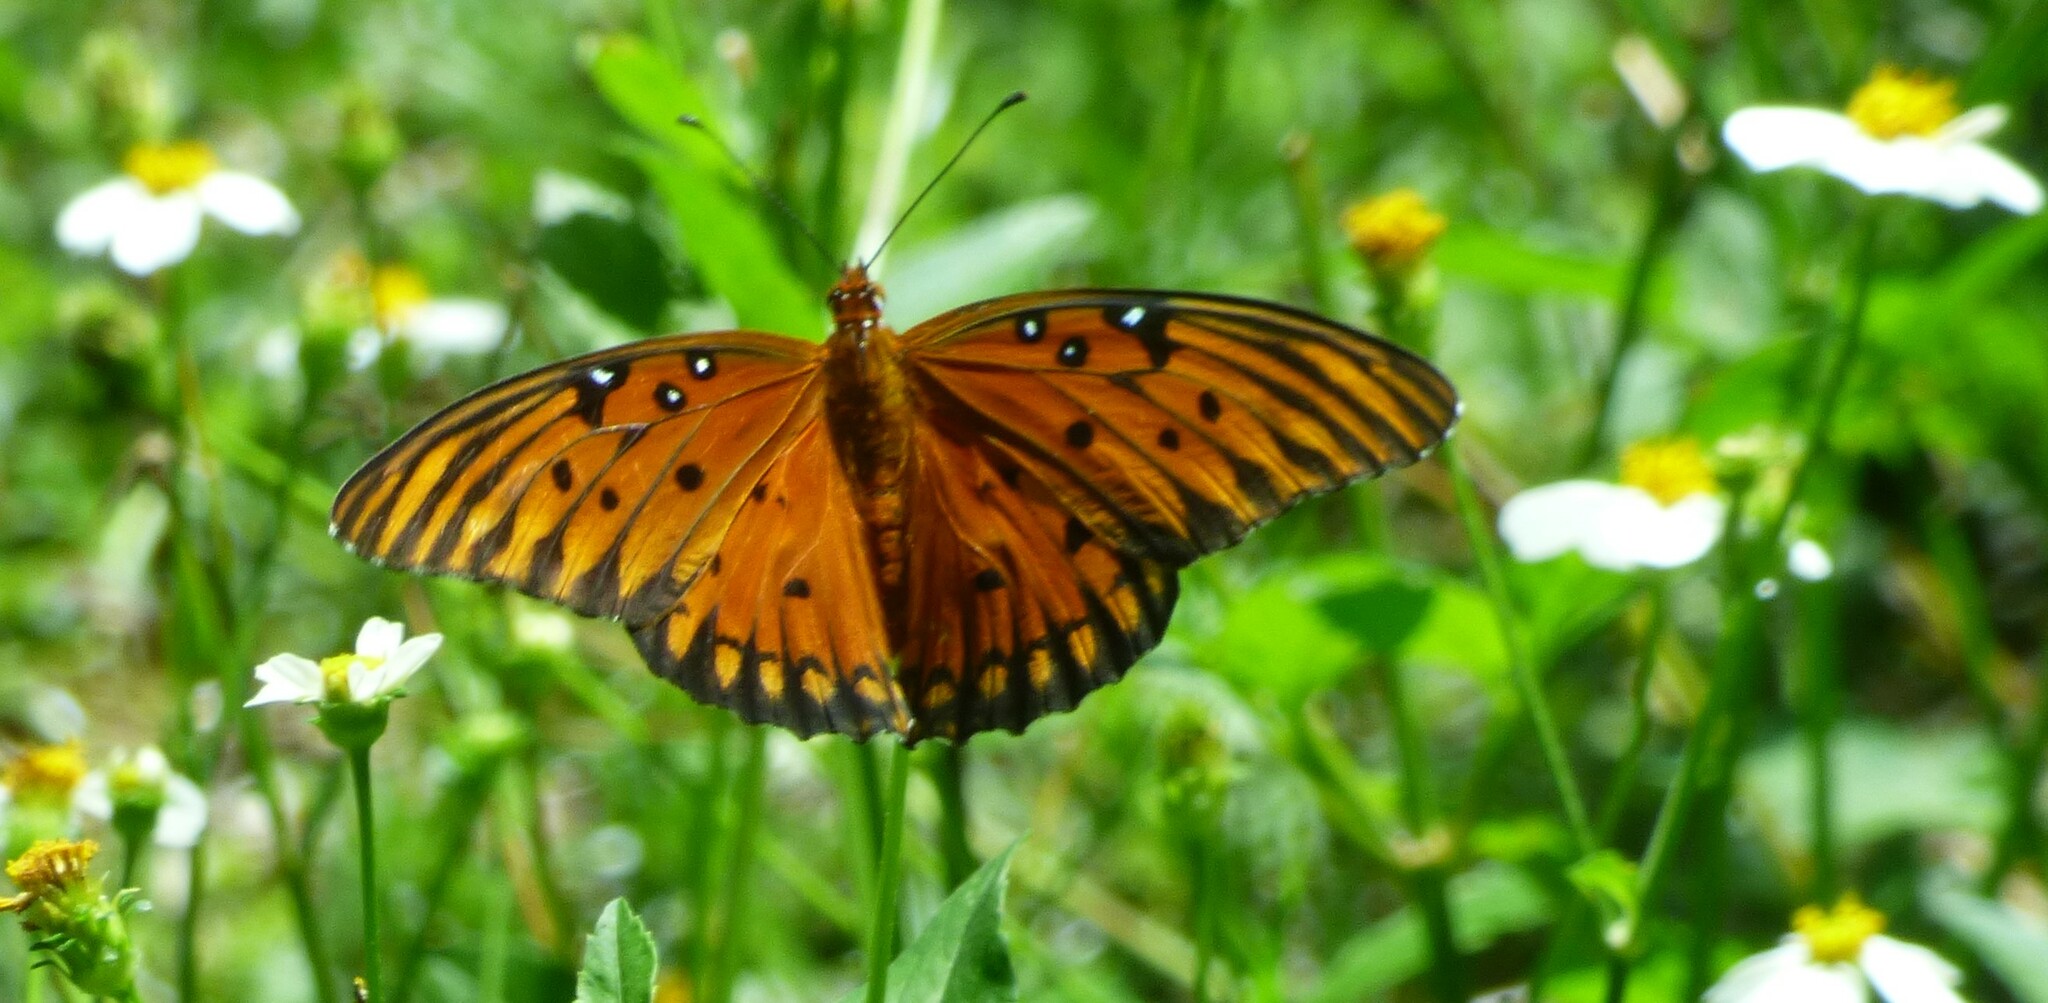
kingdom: Animalia
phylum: Arthropoda
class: Insecta
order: Lepidoptera
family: Nymphalidae
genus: Dione
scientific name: Dione vanillae
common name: Gulf fritillary
